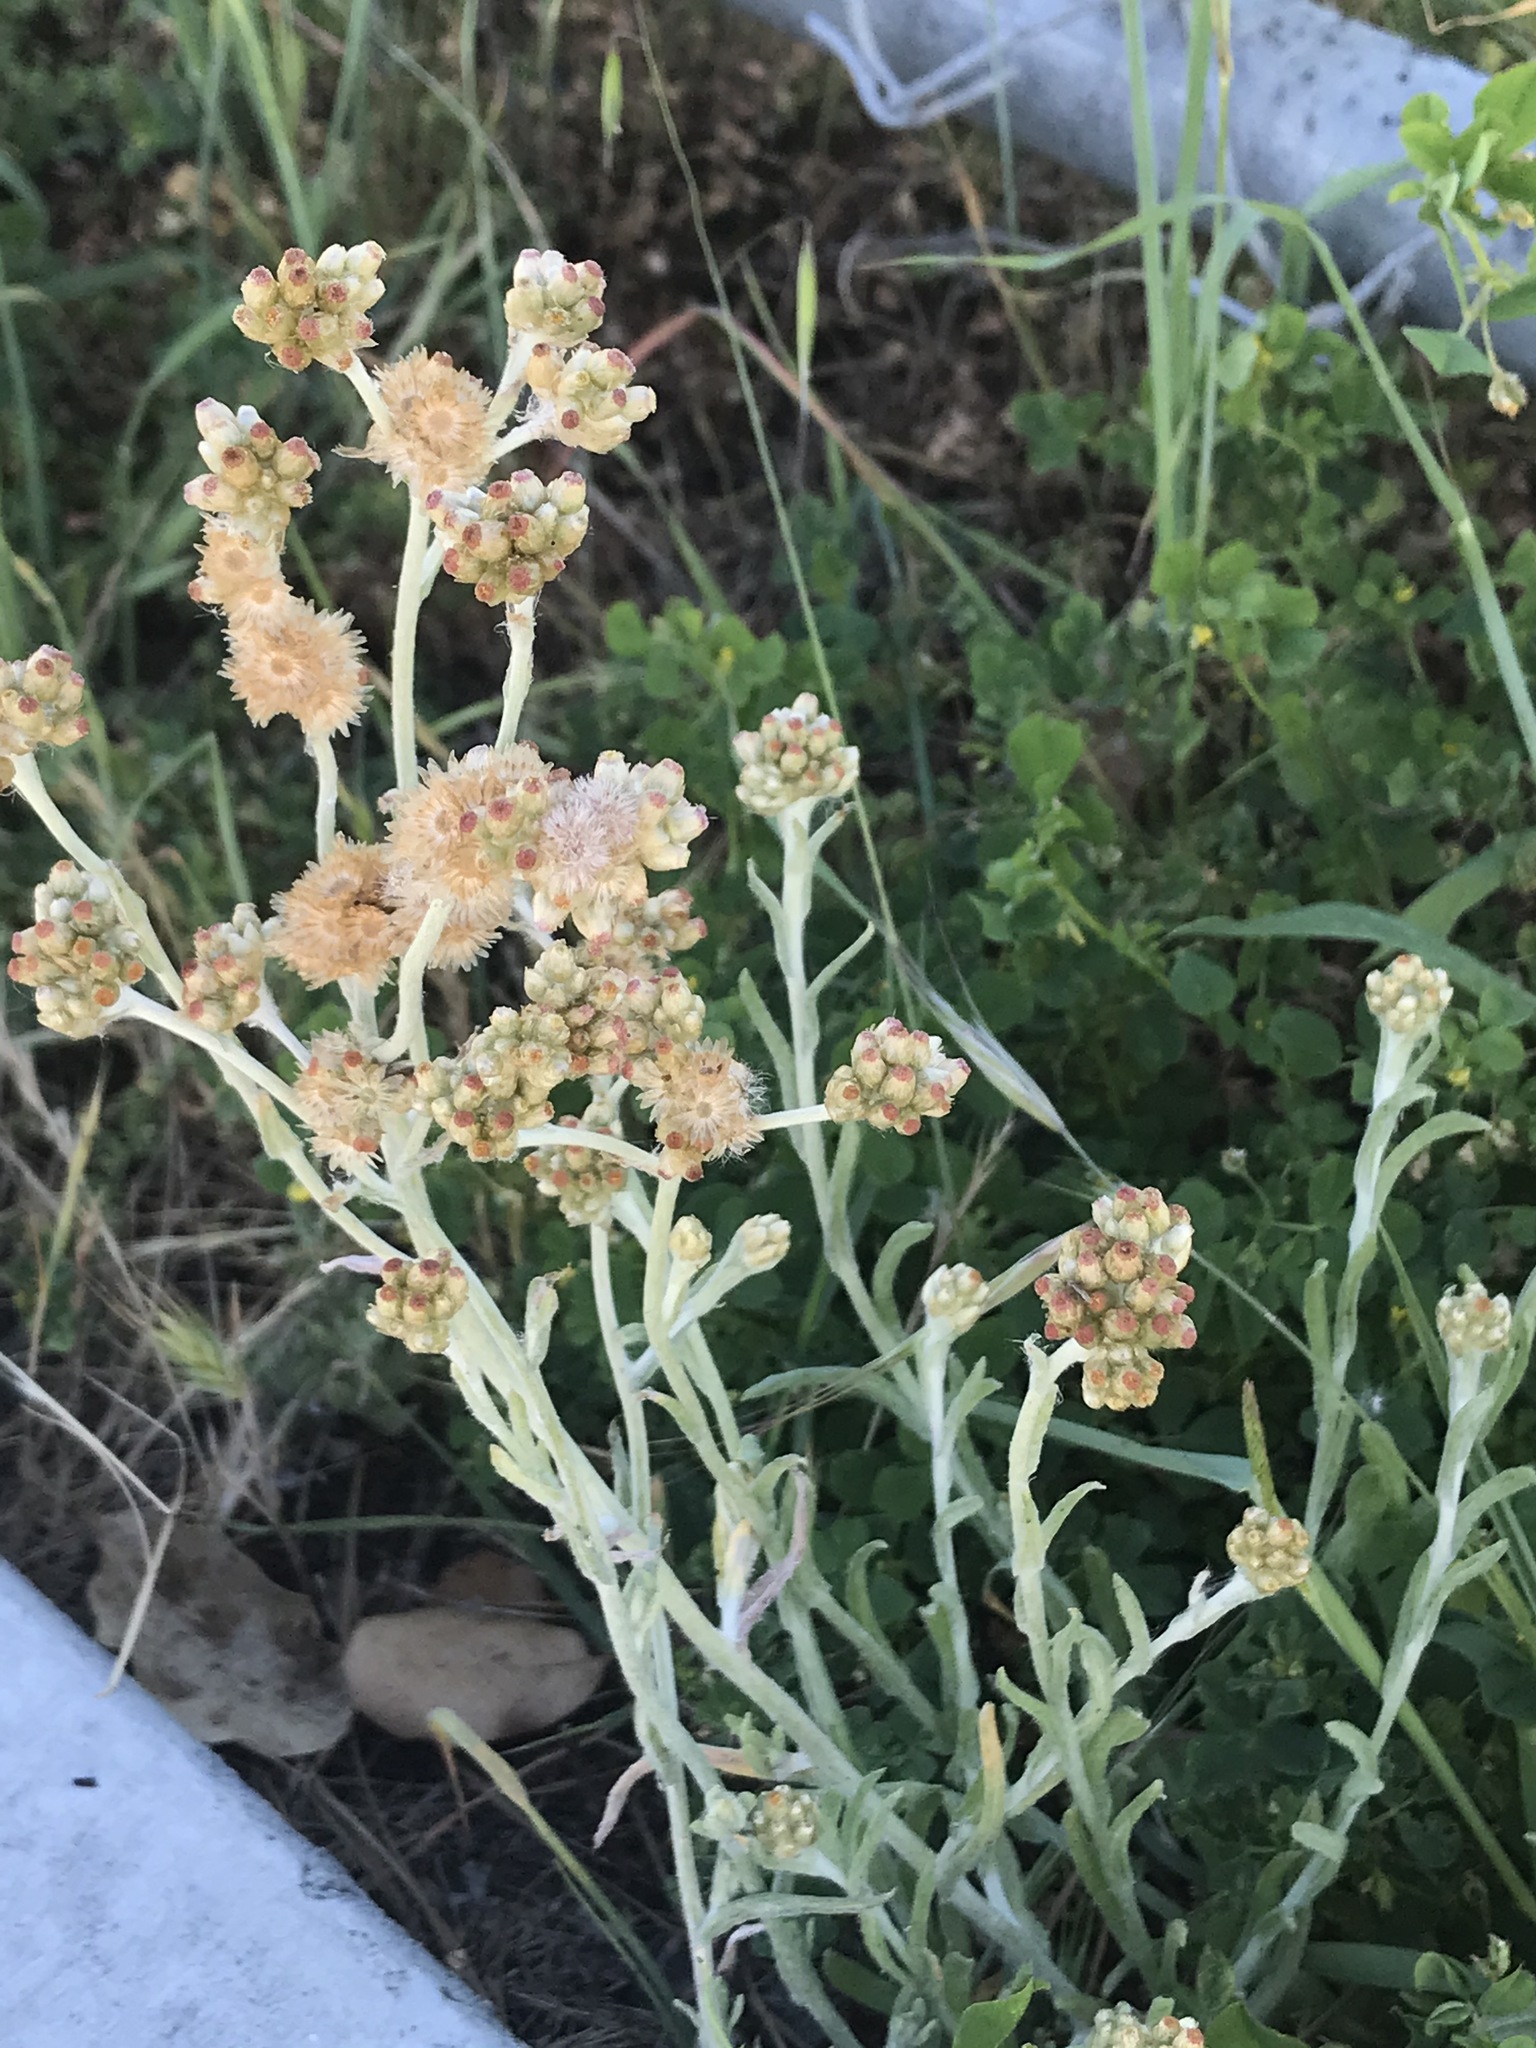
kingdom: Plantae
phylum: Tracheophyta
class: Magnoliopsida
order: Asterales
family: Asteraceae
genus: Helichrysum
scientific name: Helichrysum luteoalbum
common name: Daisy
